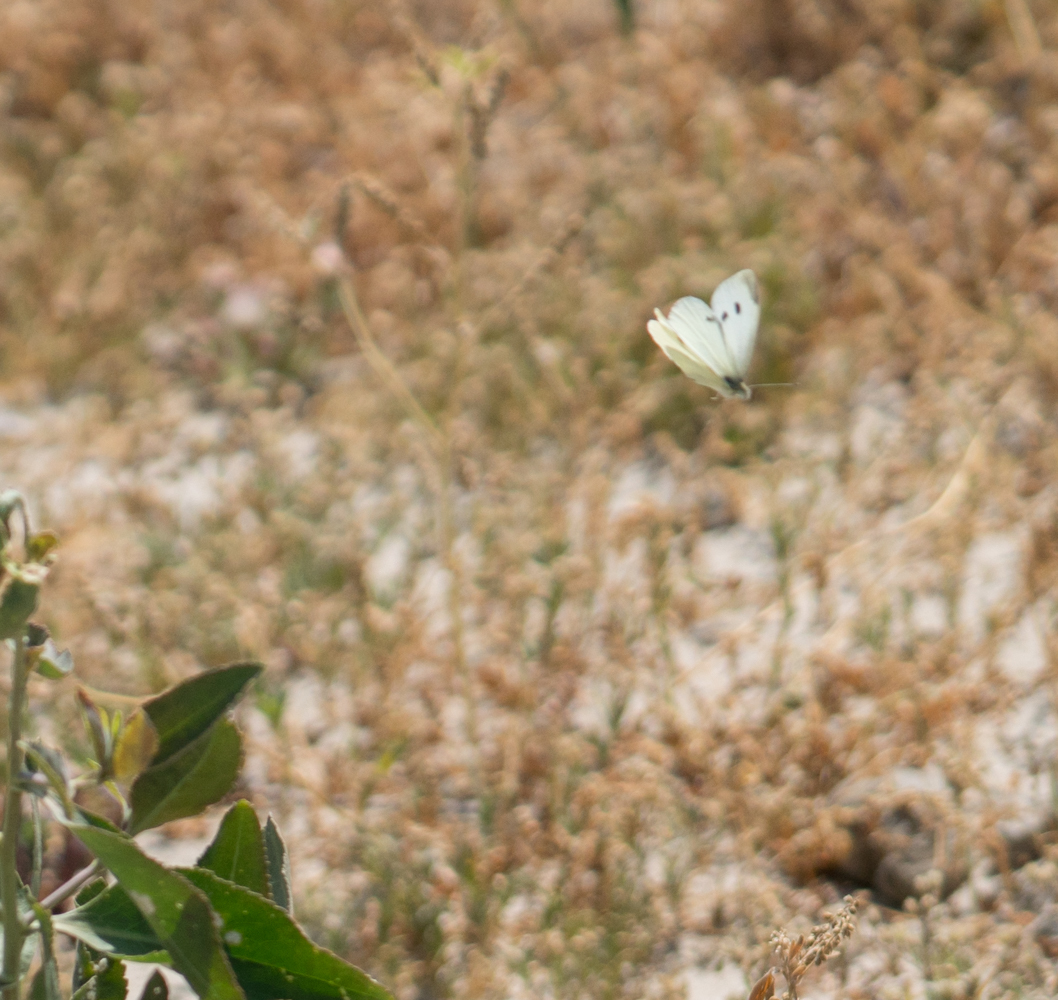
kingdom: Animalia
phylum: Arthropoda
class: Insecta
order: Lepidoptera
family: Pieridae
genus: Pieris
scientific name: Pieris rapae
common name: Small white
